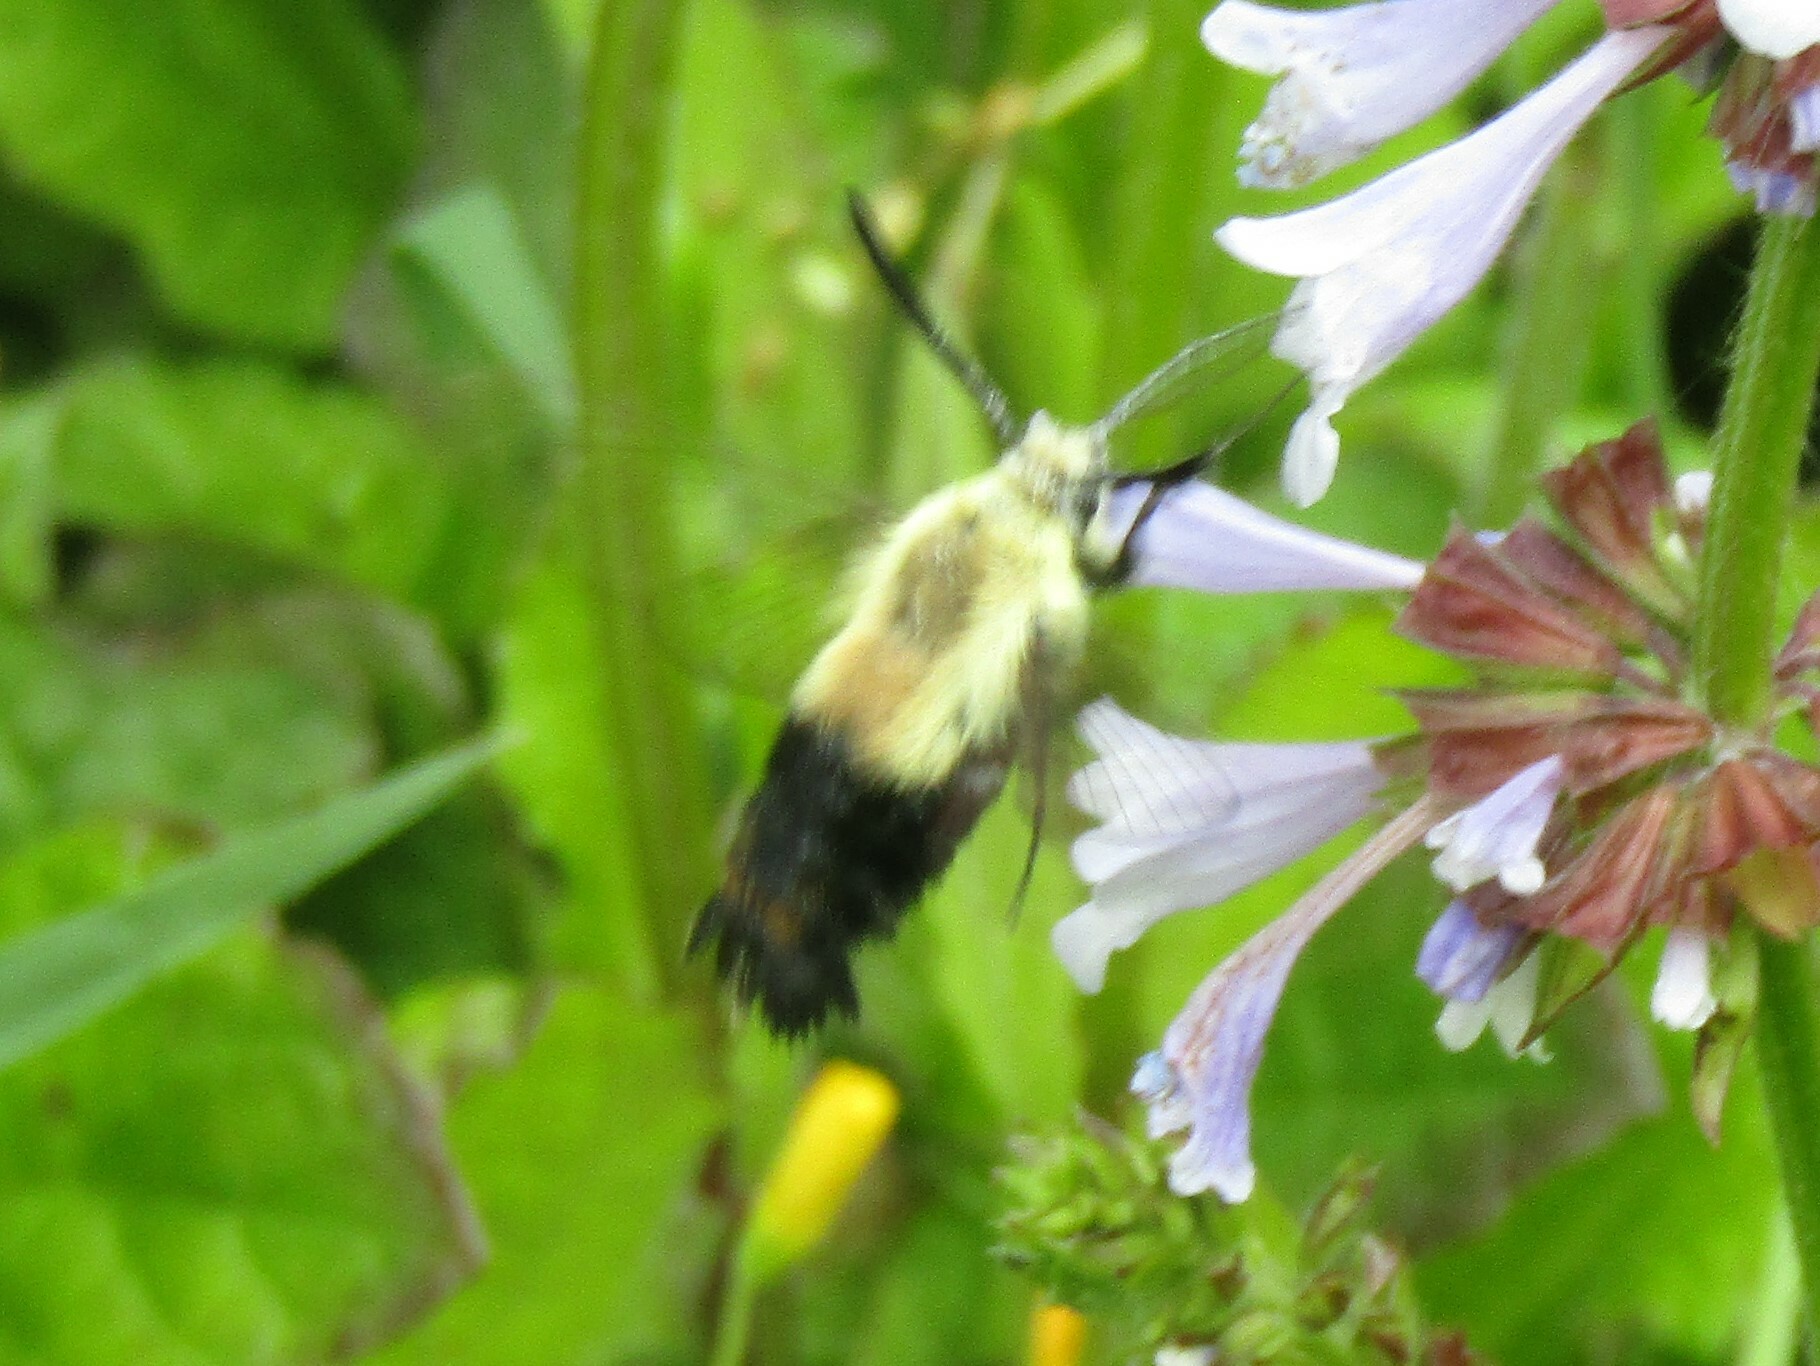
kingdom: Animalia
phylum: Arthropoda
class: Insecta
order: Lepidoptera
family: Sphingidae
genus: Hemaris
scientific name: Hemaris diffinis
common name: Bumblebee moth
